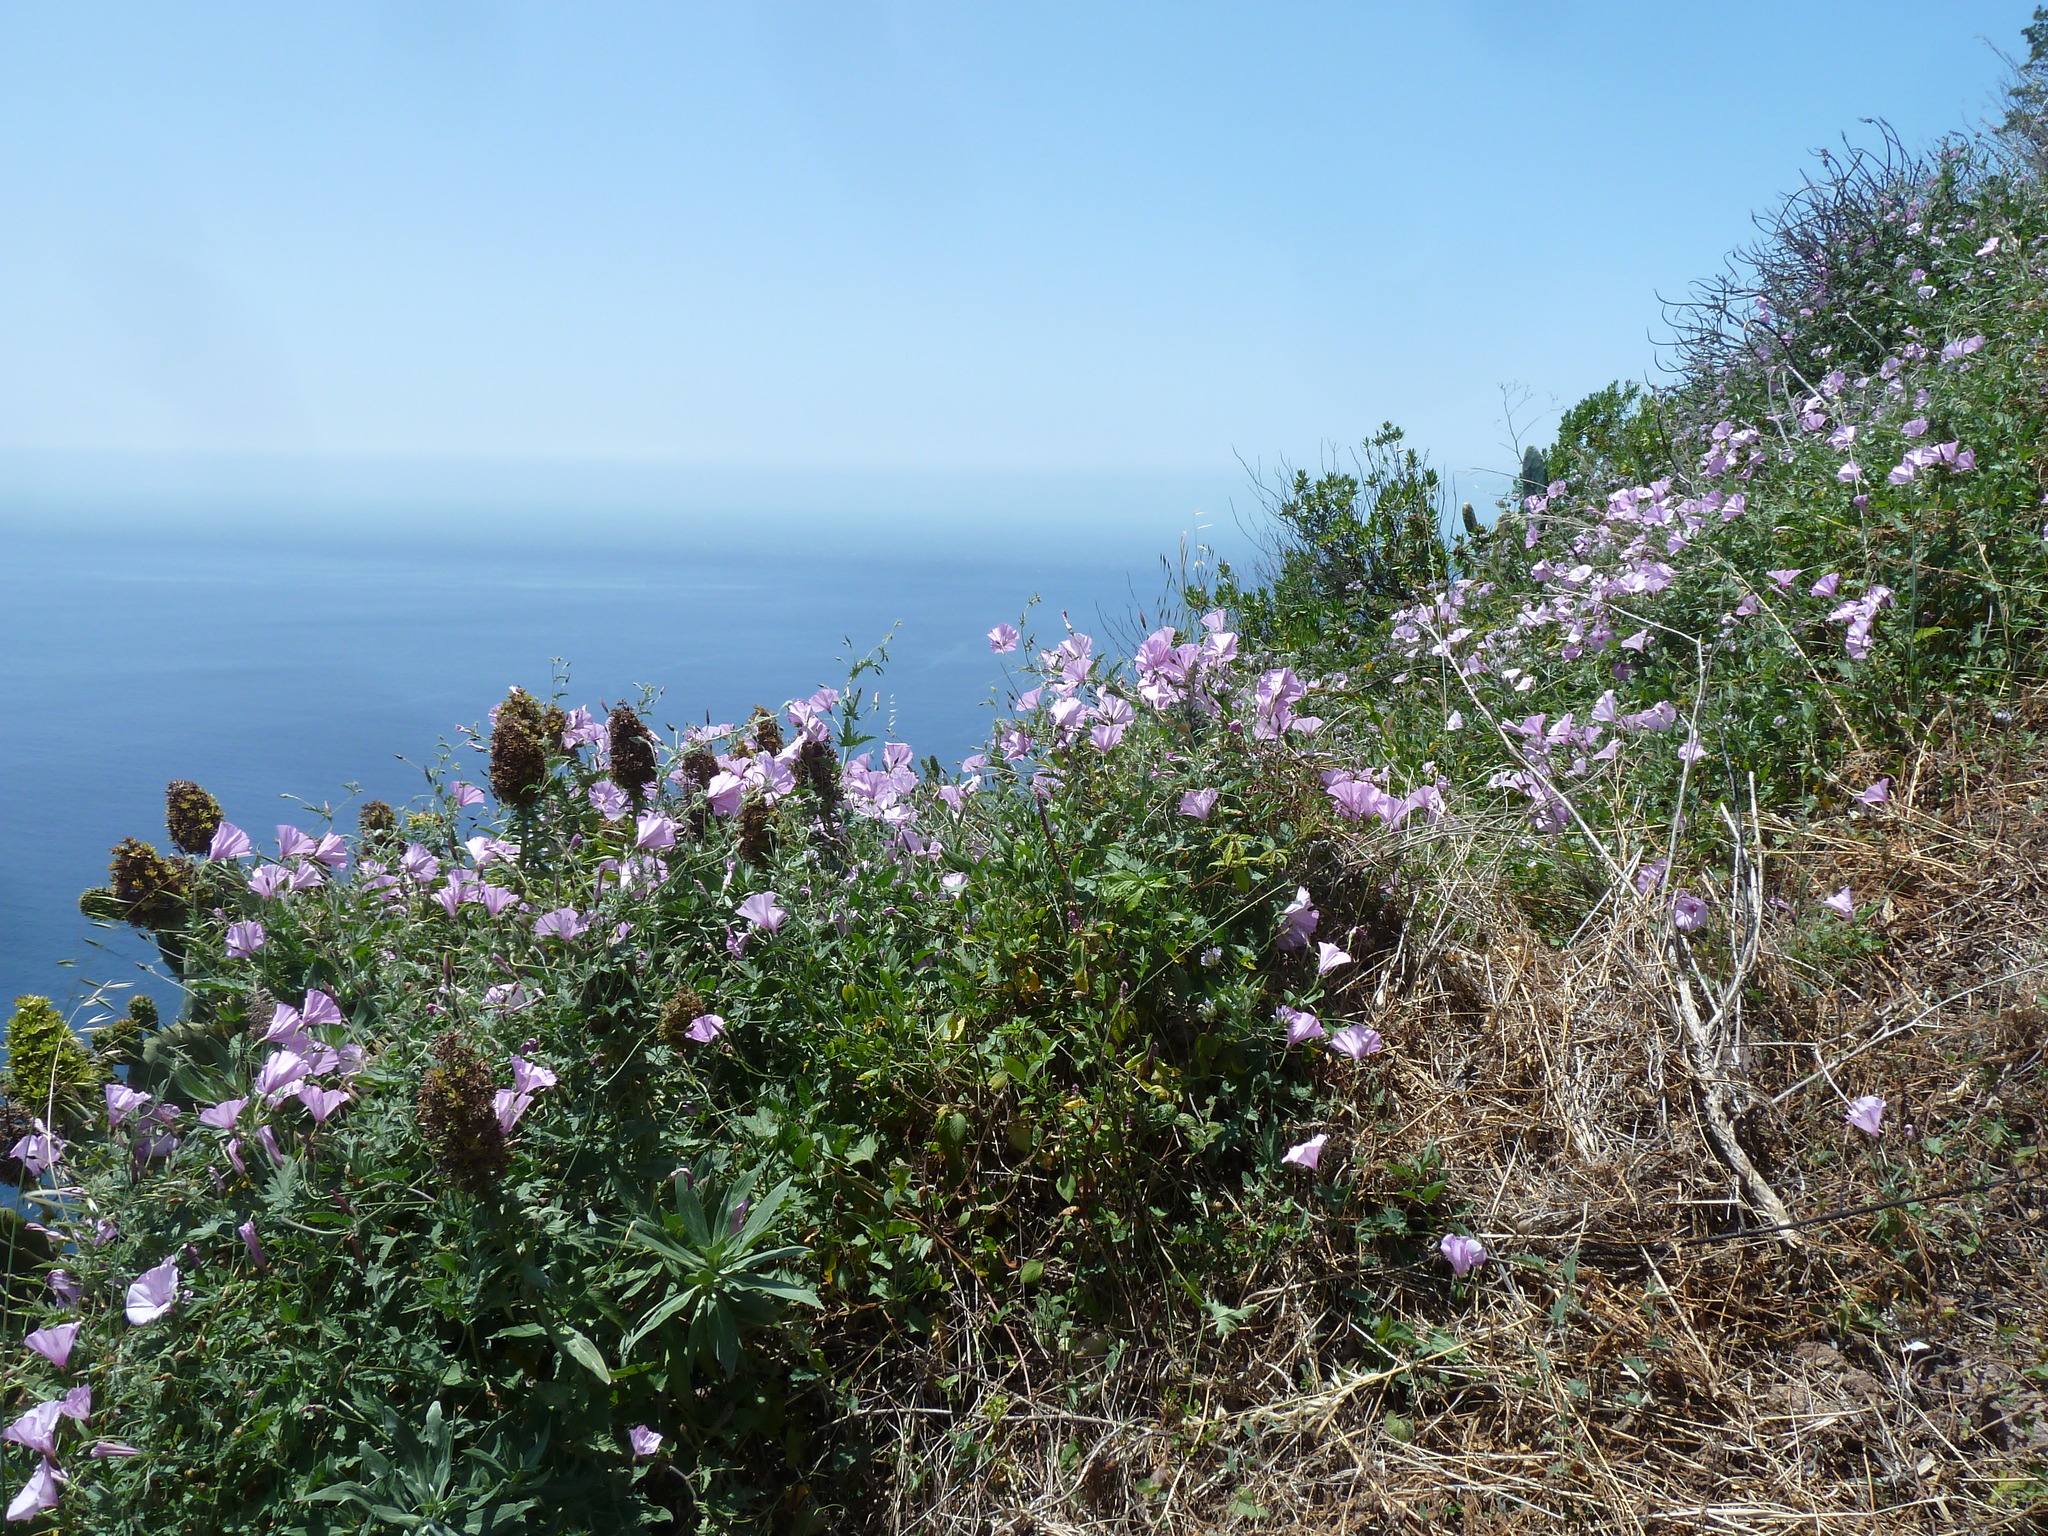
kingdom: Plantae
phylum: Tracheophyta
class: Magnoliopsida
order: Solanales
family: Convolvulaceae
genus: Convolvulus
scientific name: Convolvulus althaeoides
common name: Mallow bindweed
